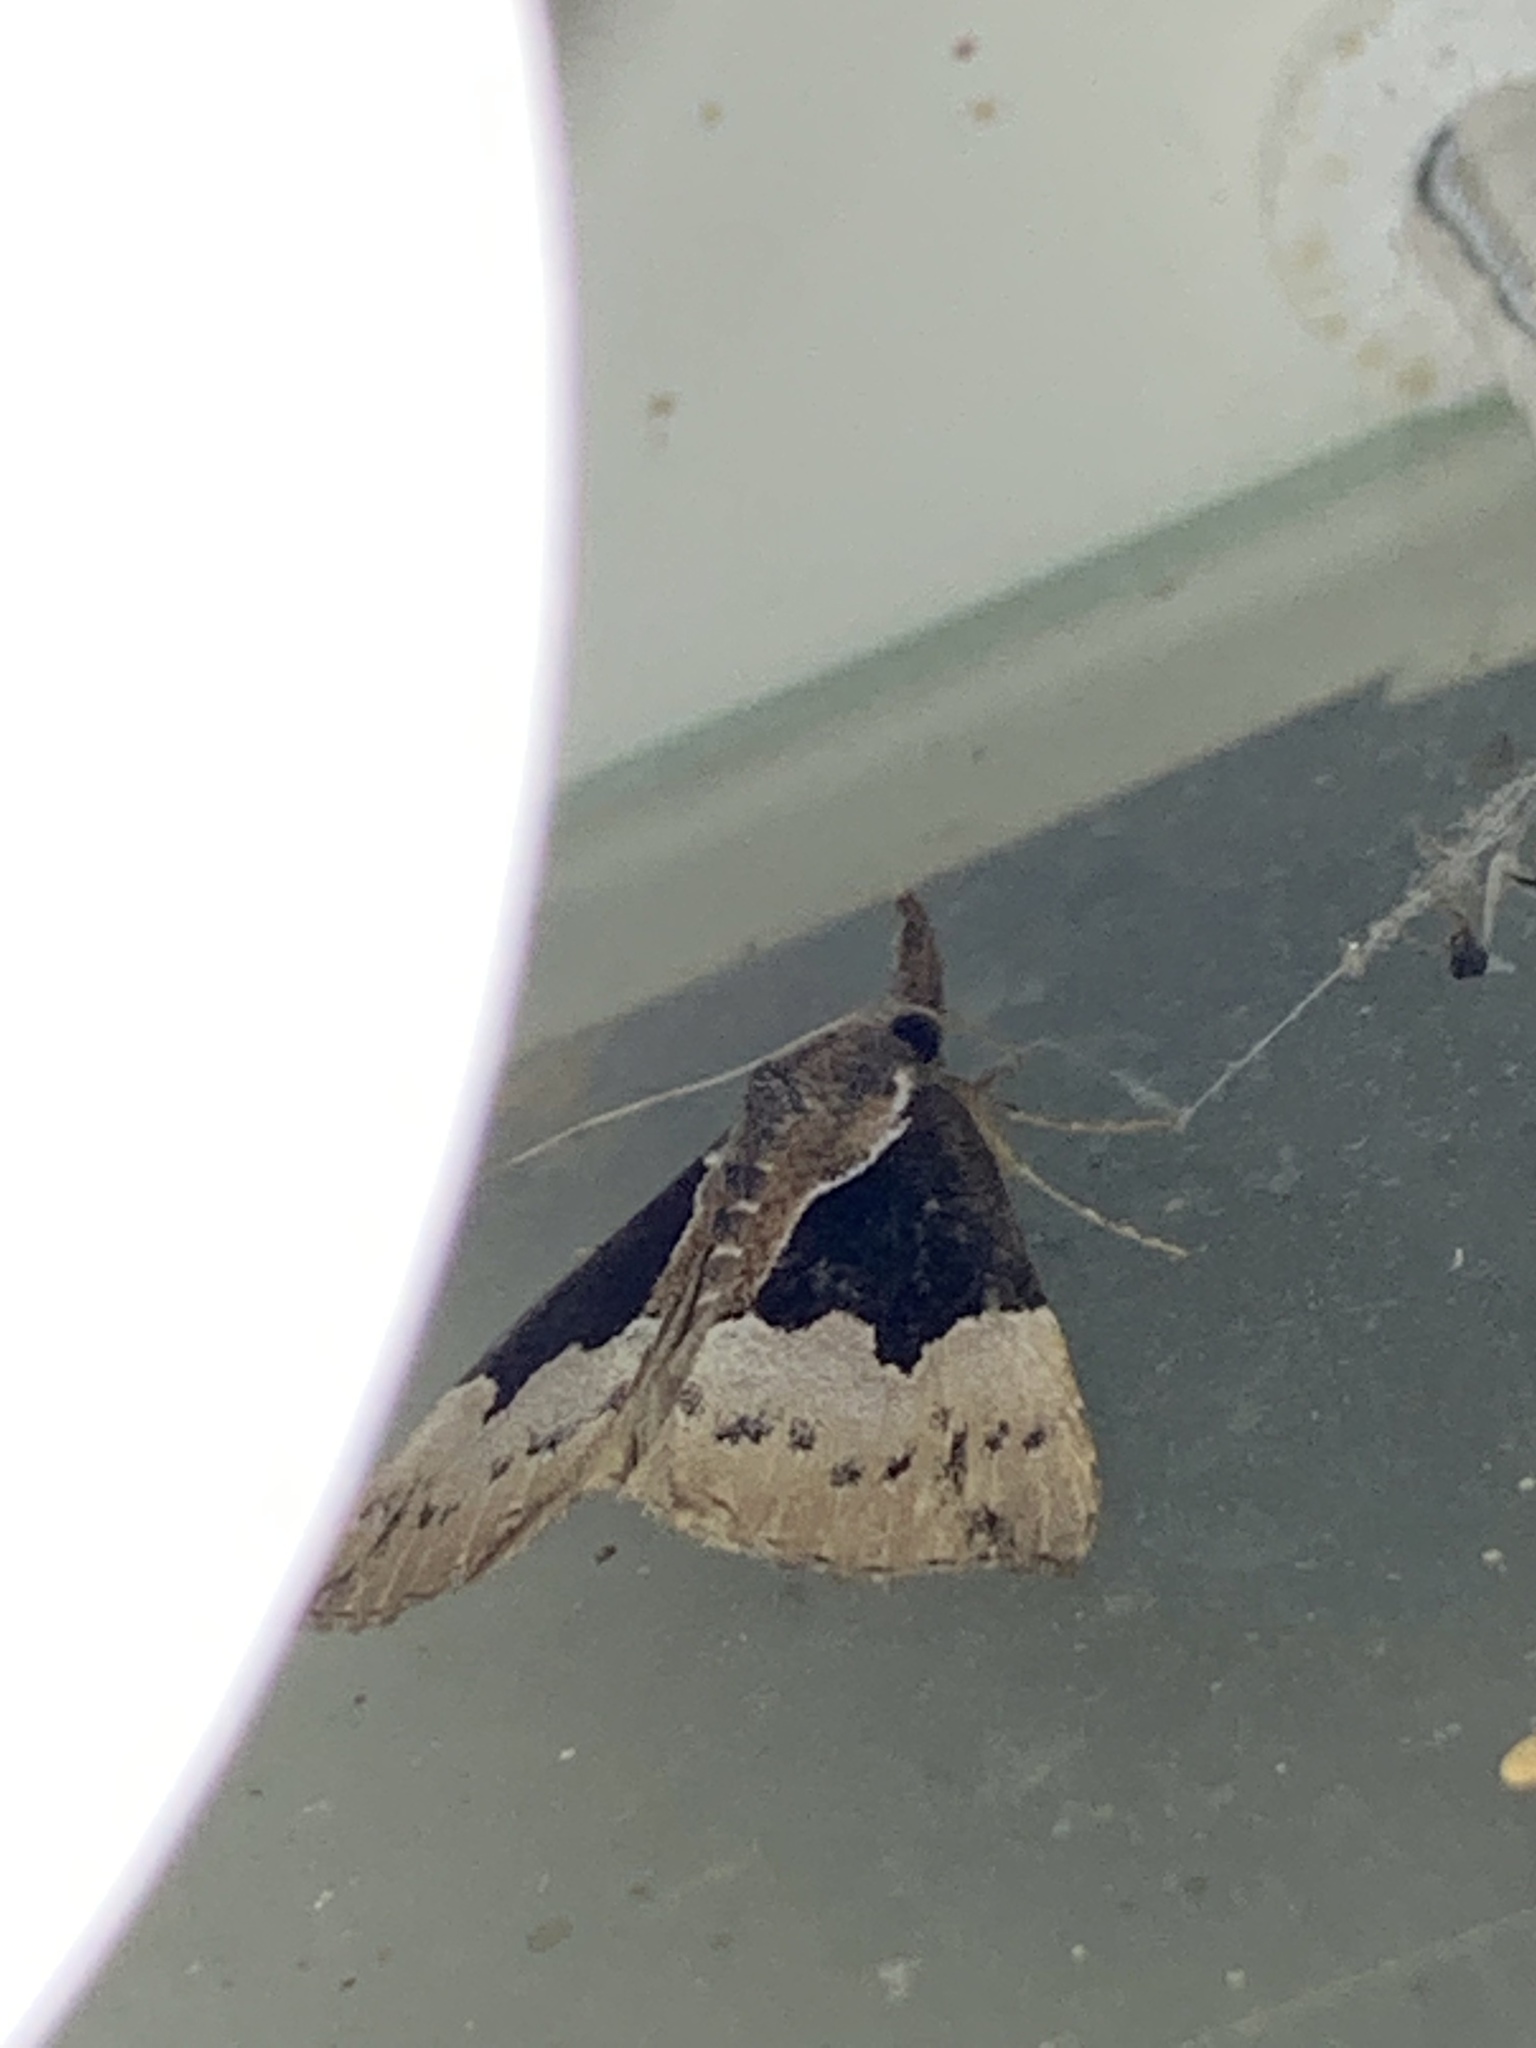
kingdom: Animalia
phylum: Arthropoda
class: Insecta
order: Lepidoptera
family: Erebidae
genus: Hypena
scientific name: Hypena bijugalis
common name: Dimorphic bomolocha moth
